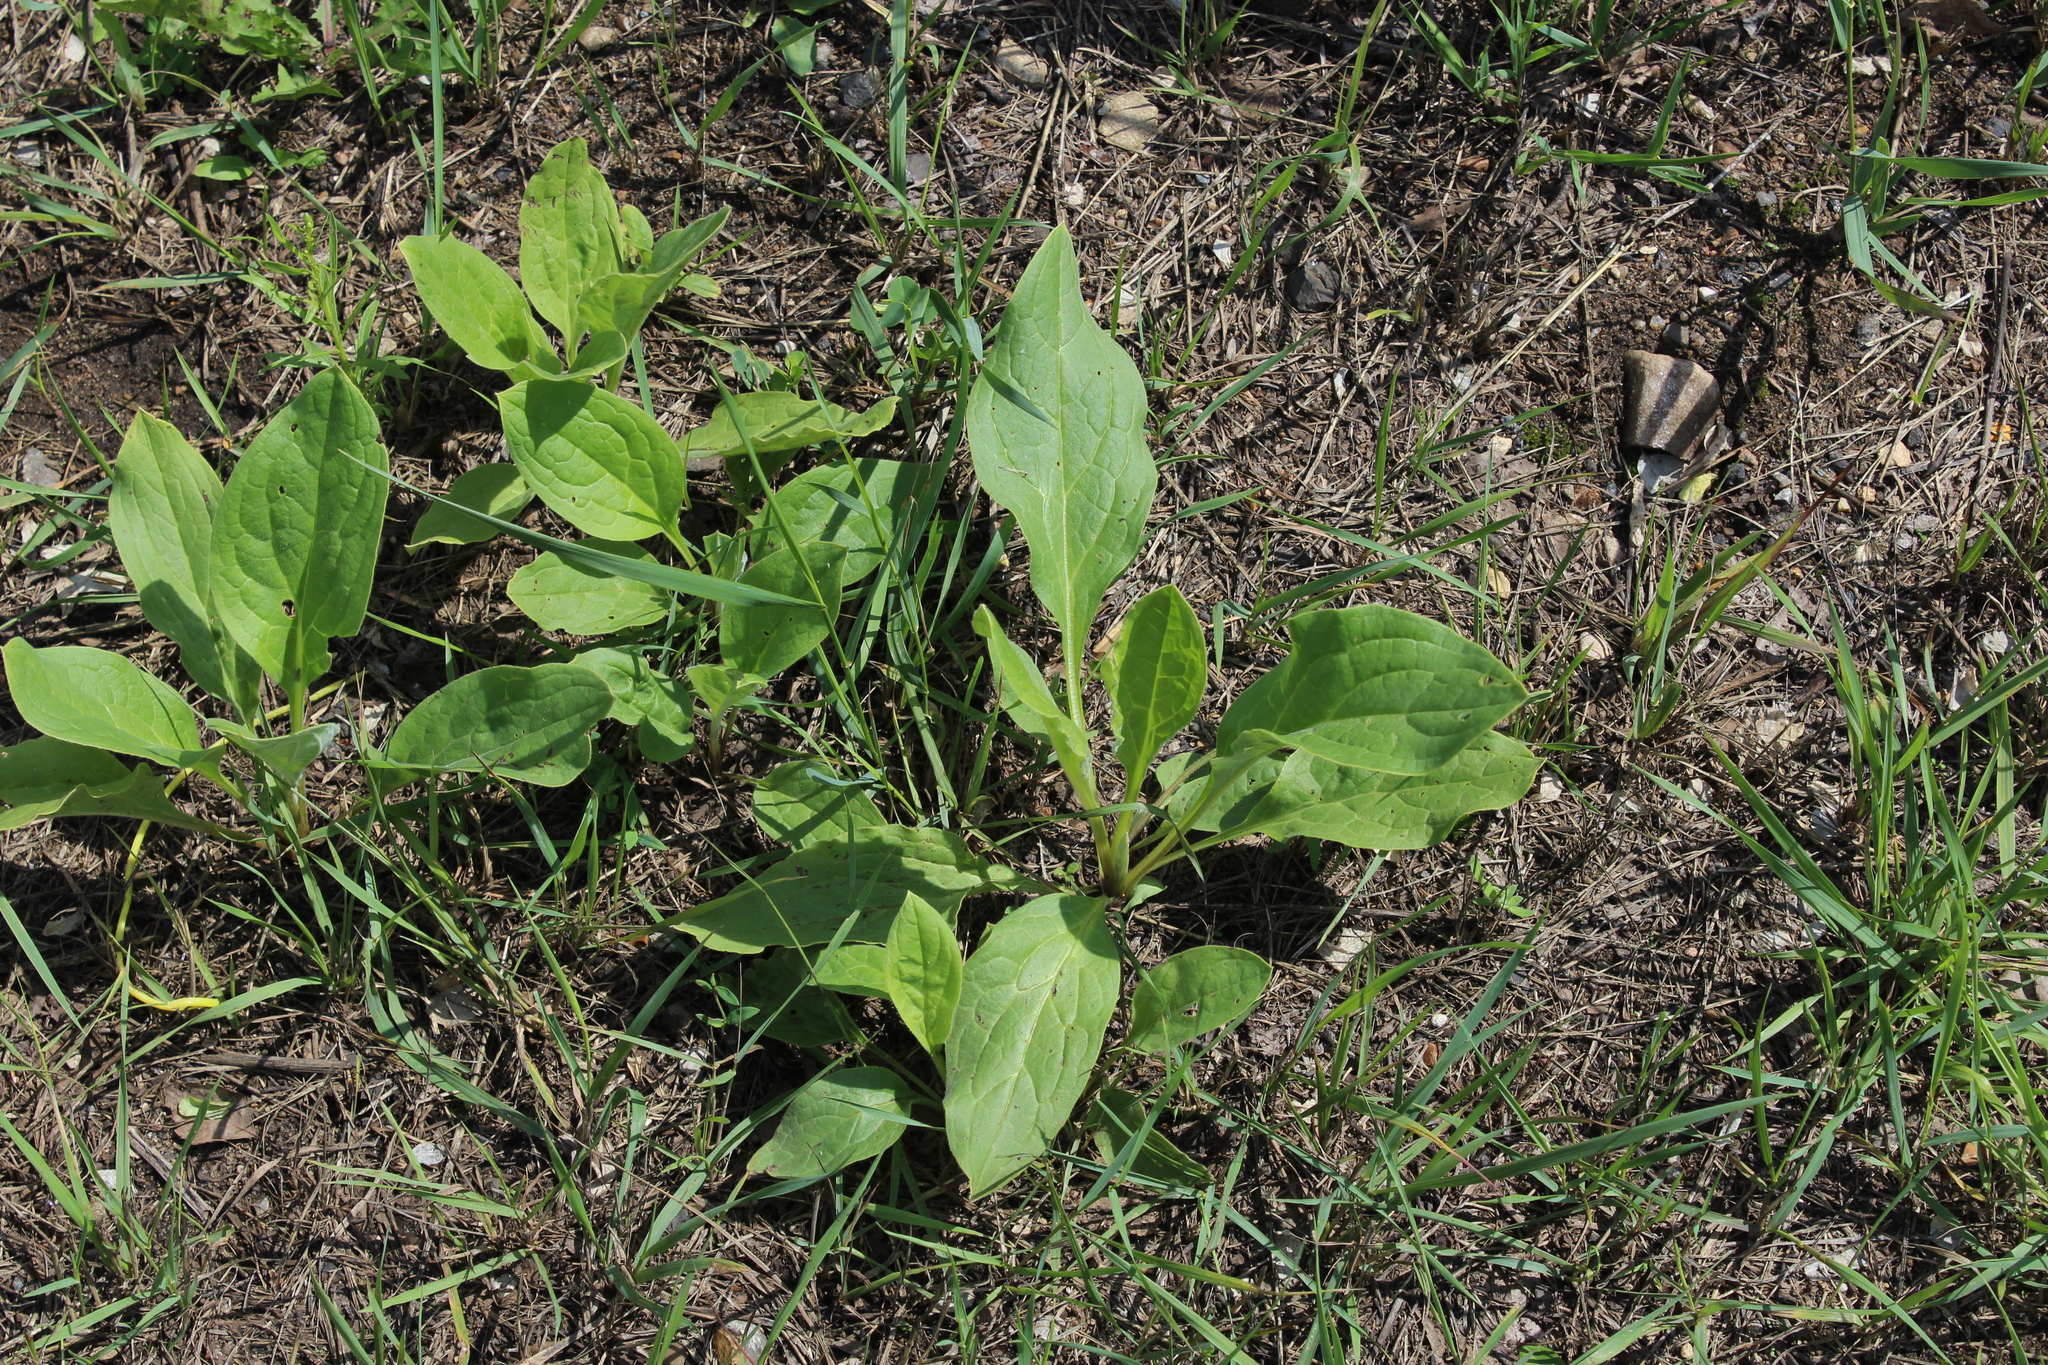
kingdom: Plantae
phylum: Tracheophyta
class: Magnoliopsida
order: Boraginales
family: Boraginaceae
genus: Cynoglossum
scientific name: Cynoglossum officinale
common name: Hound's-tongue
